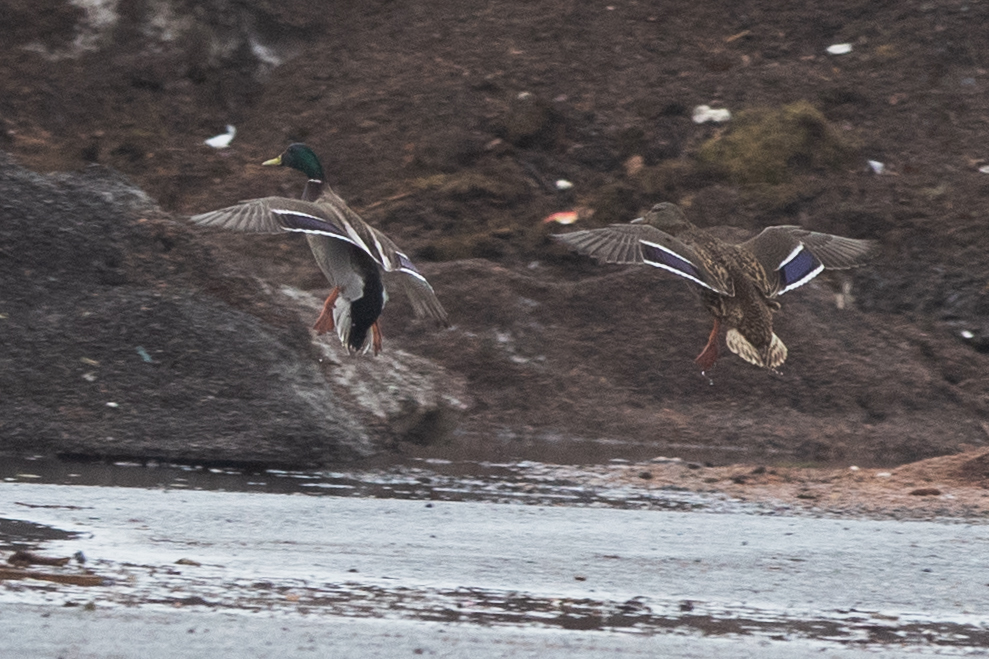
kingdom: Animalia
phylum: Chordata
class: Aves
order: Anseriformes
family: Anatidae
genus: Anas
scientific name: Anas platyrhynchos
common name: Mallard
